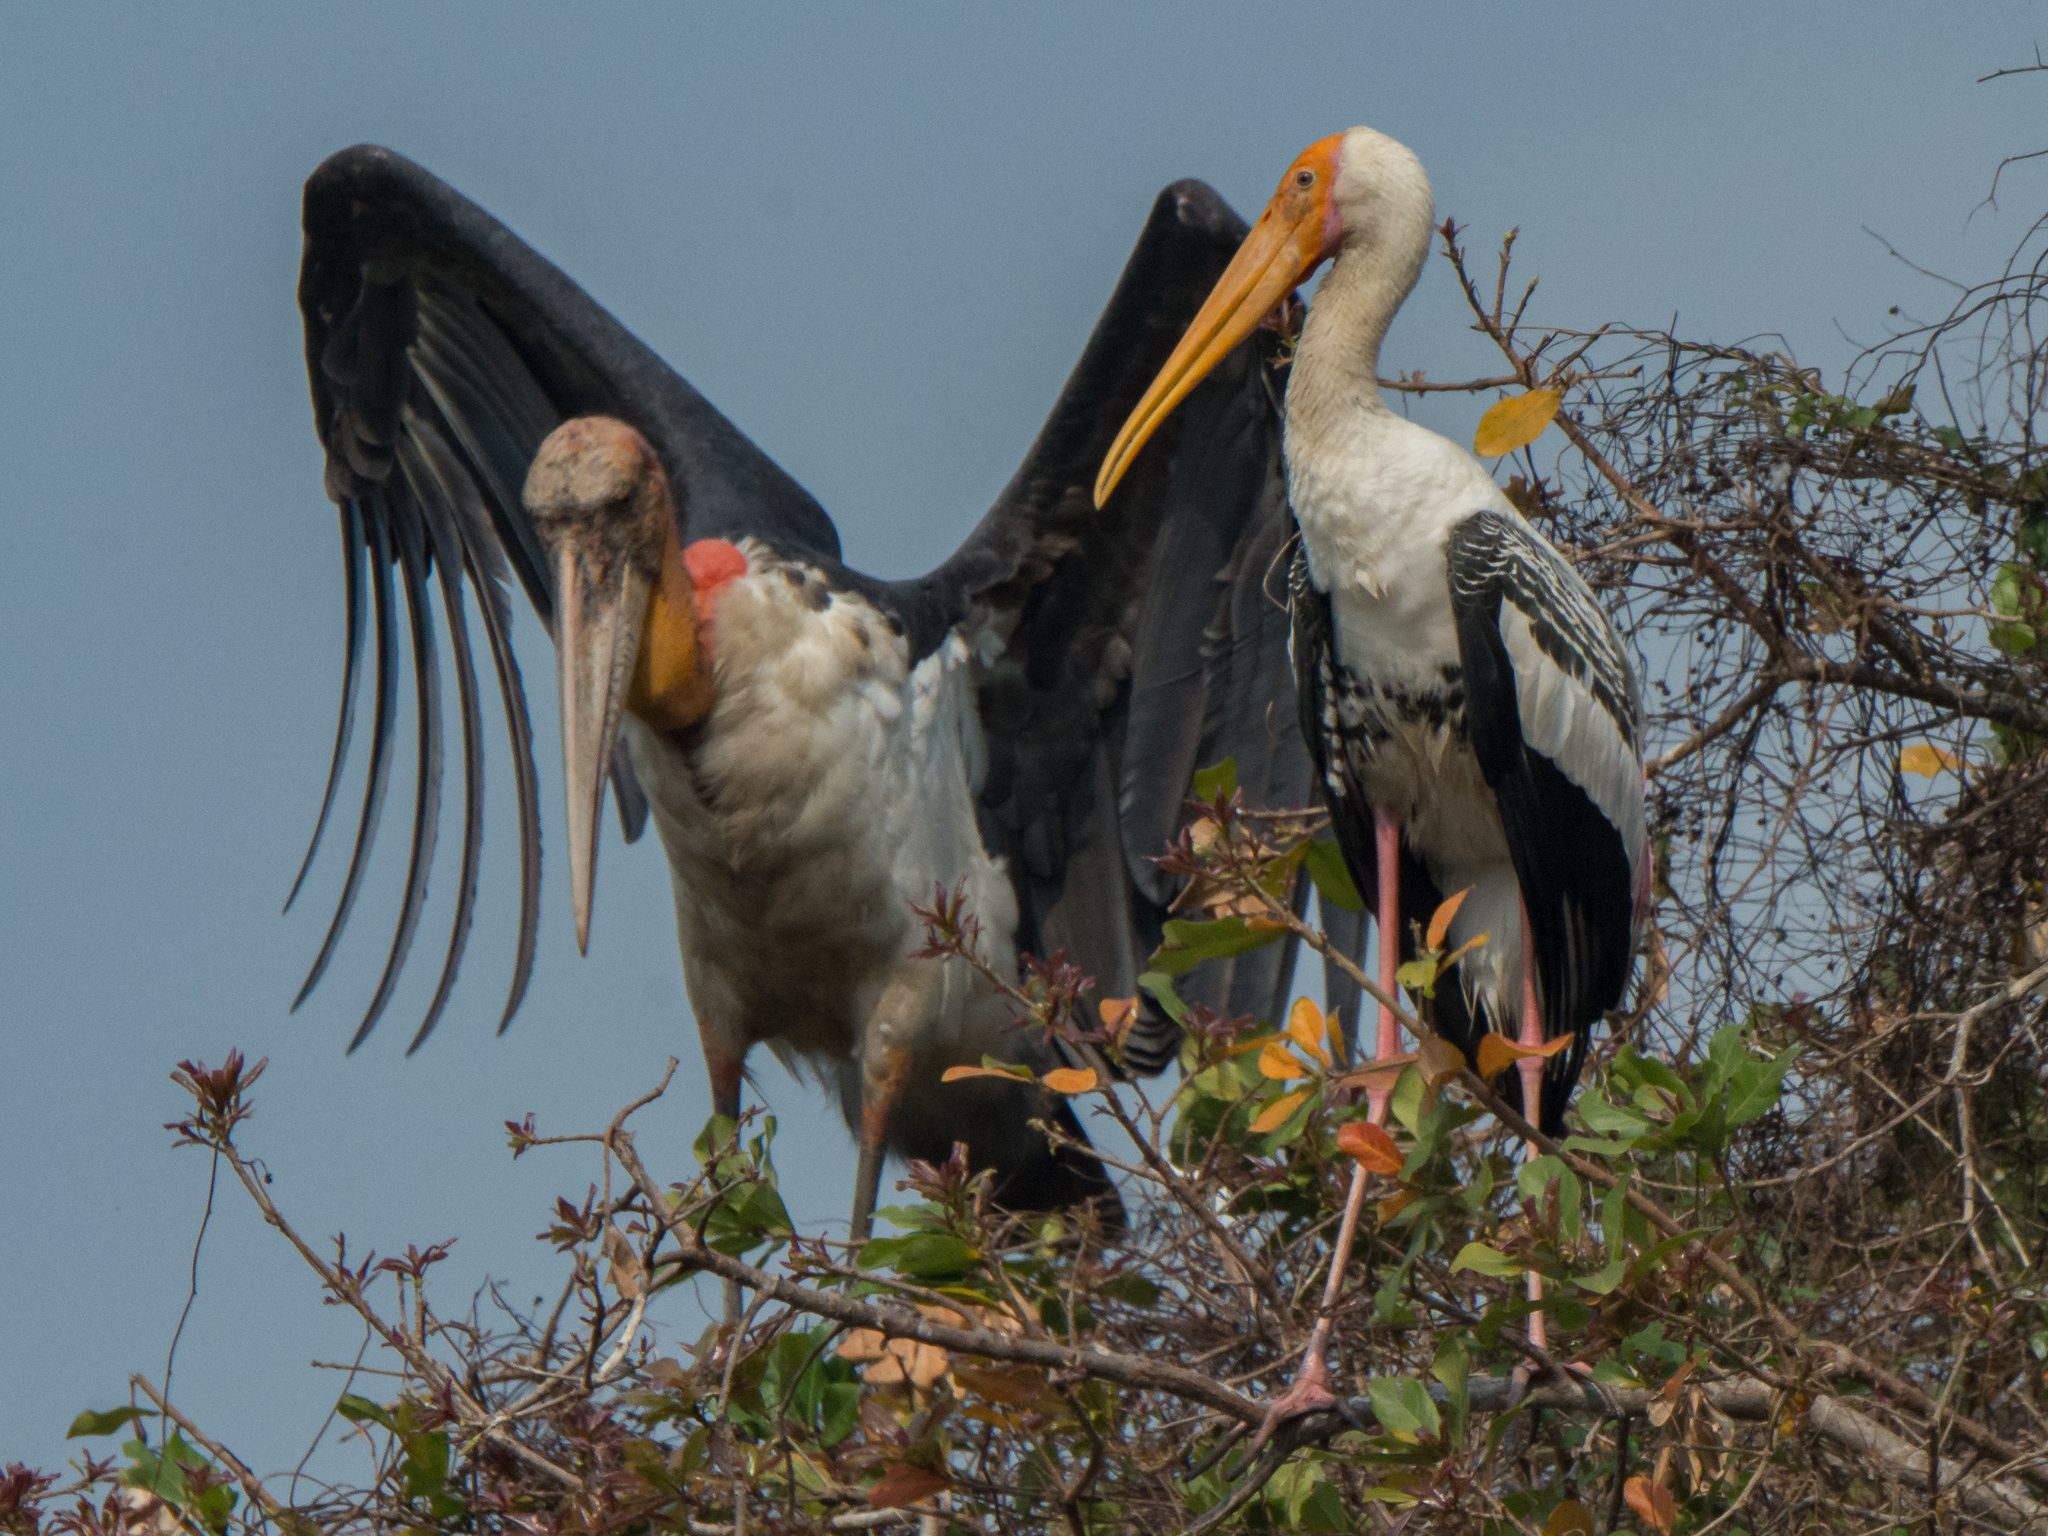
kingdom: Animalia
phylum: Chordata
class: Aves
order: Ciconiiformes
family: Ciconiidae
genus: Mycteria
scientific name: Mycteria leucocephala
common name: Painted stork
